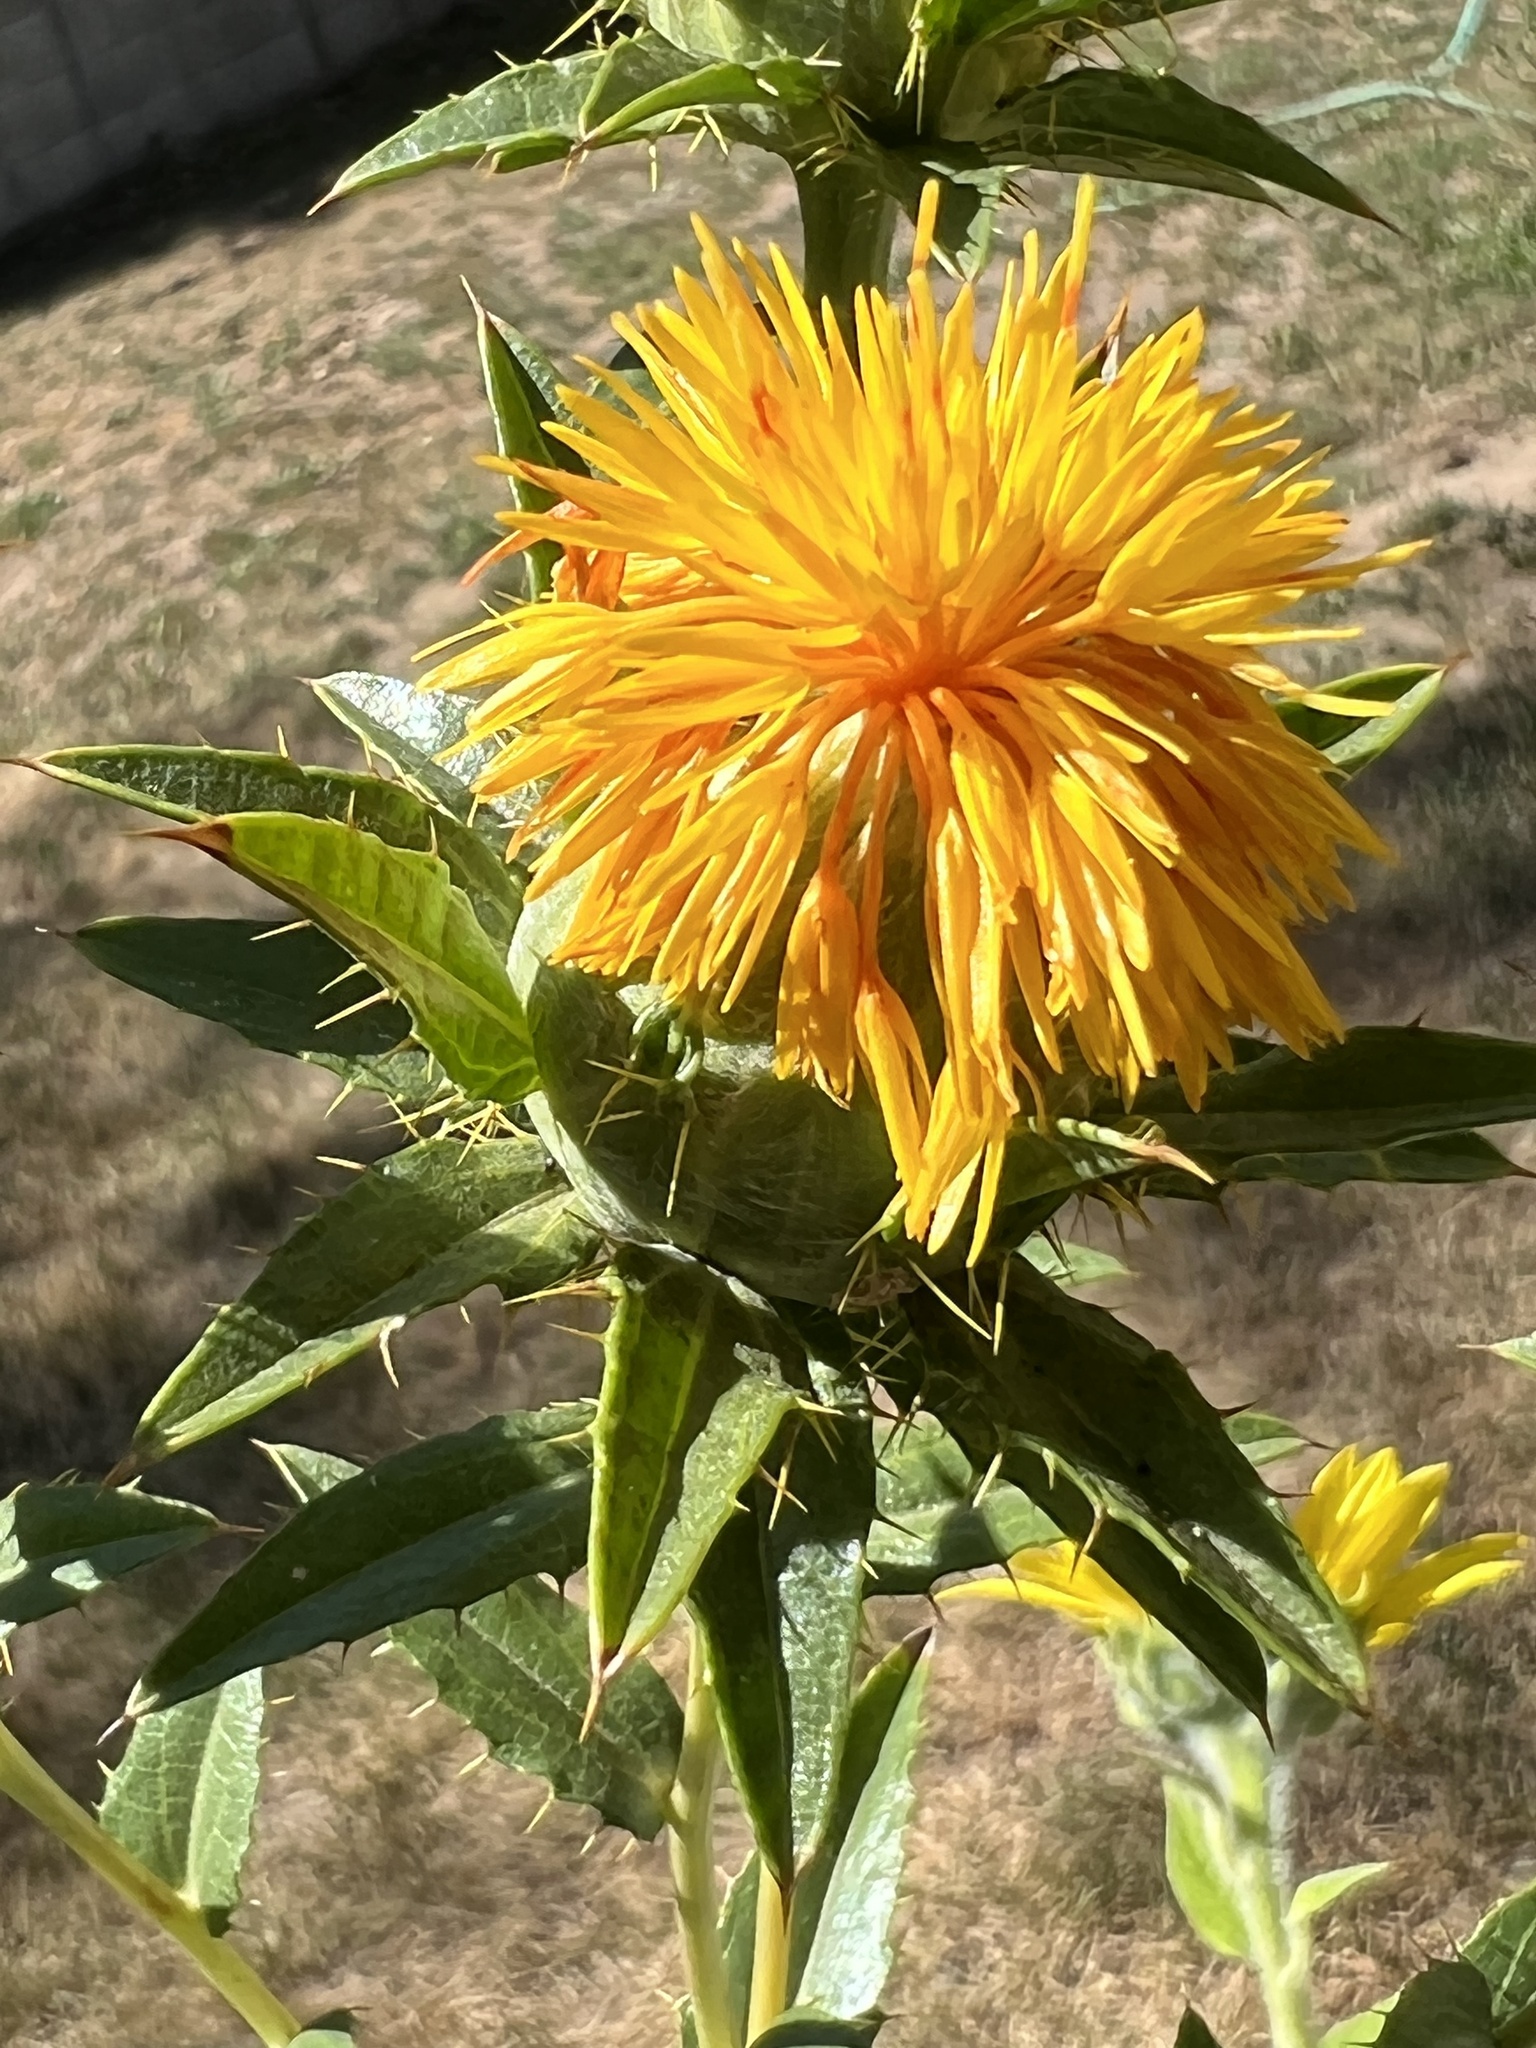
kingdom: Plantae
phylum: Tracheophyta
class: Magnoliopsida
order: Asterales
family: Asteraceae
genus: Carthamus
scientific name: Carthamus tinctorius
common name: Safflower
